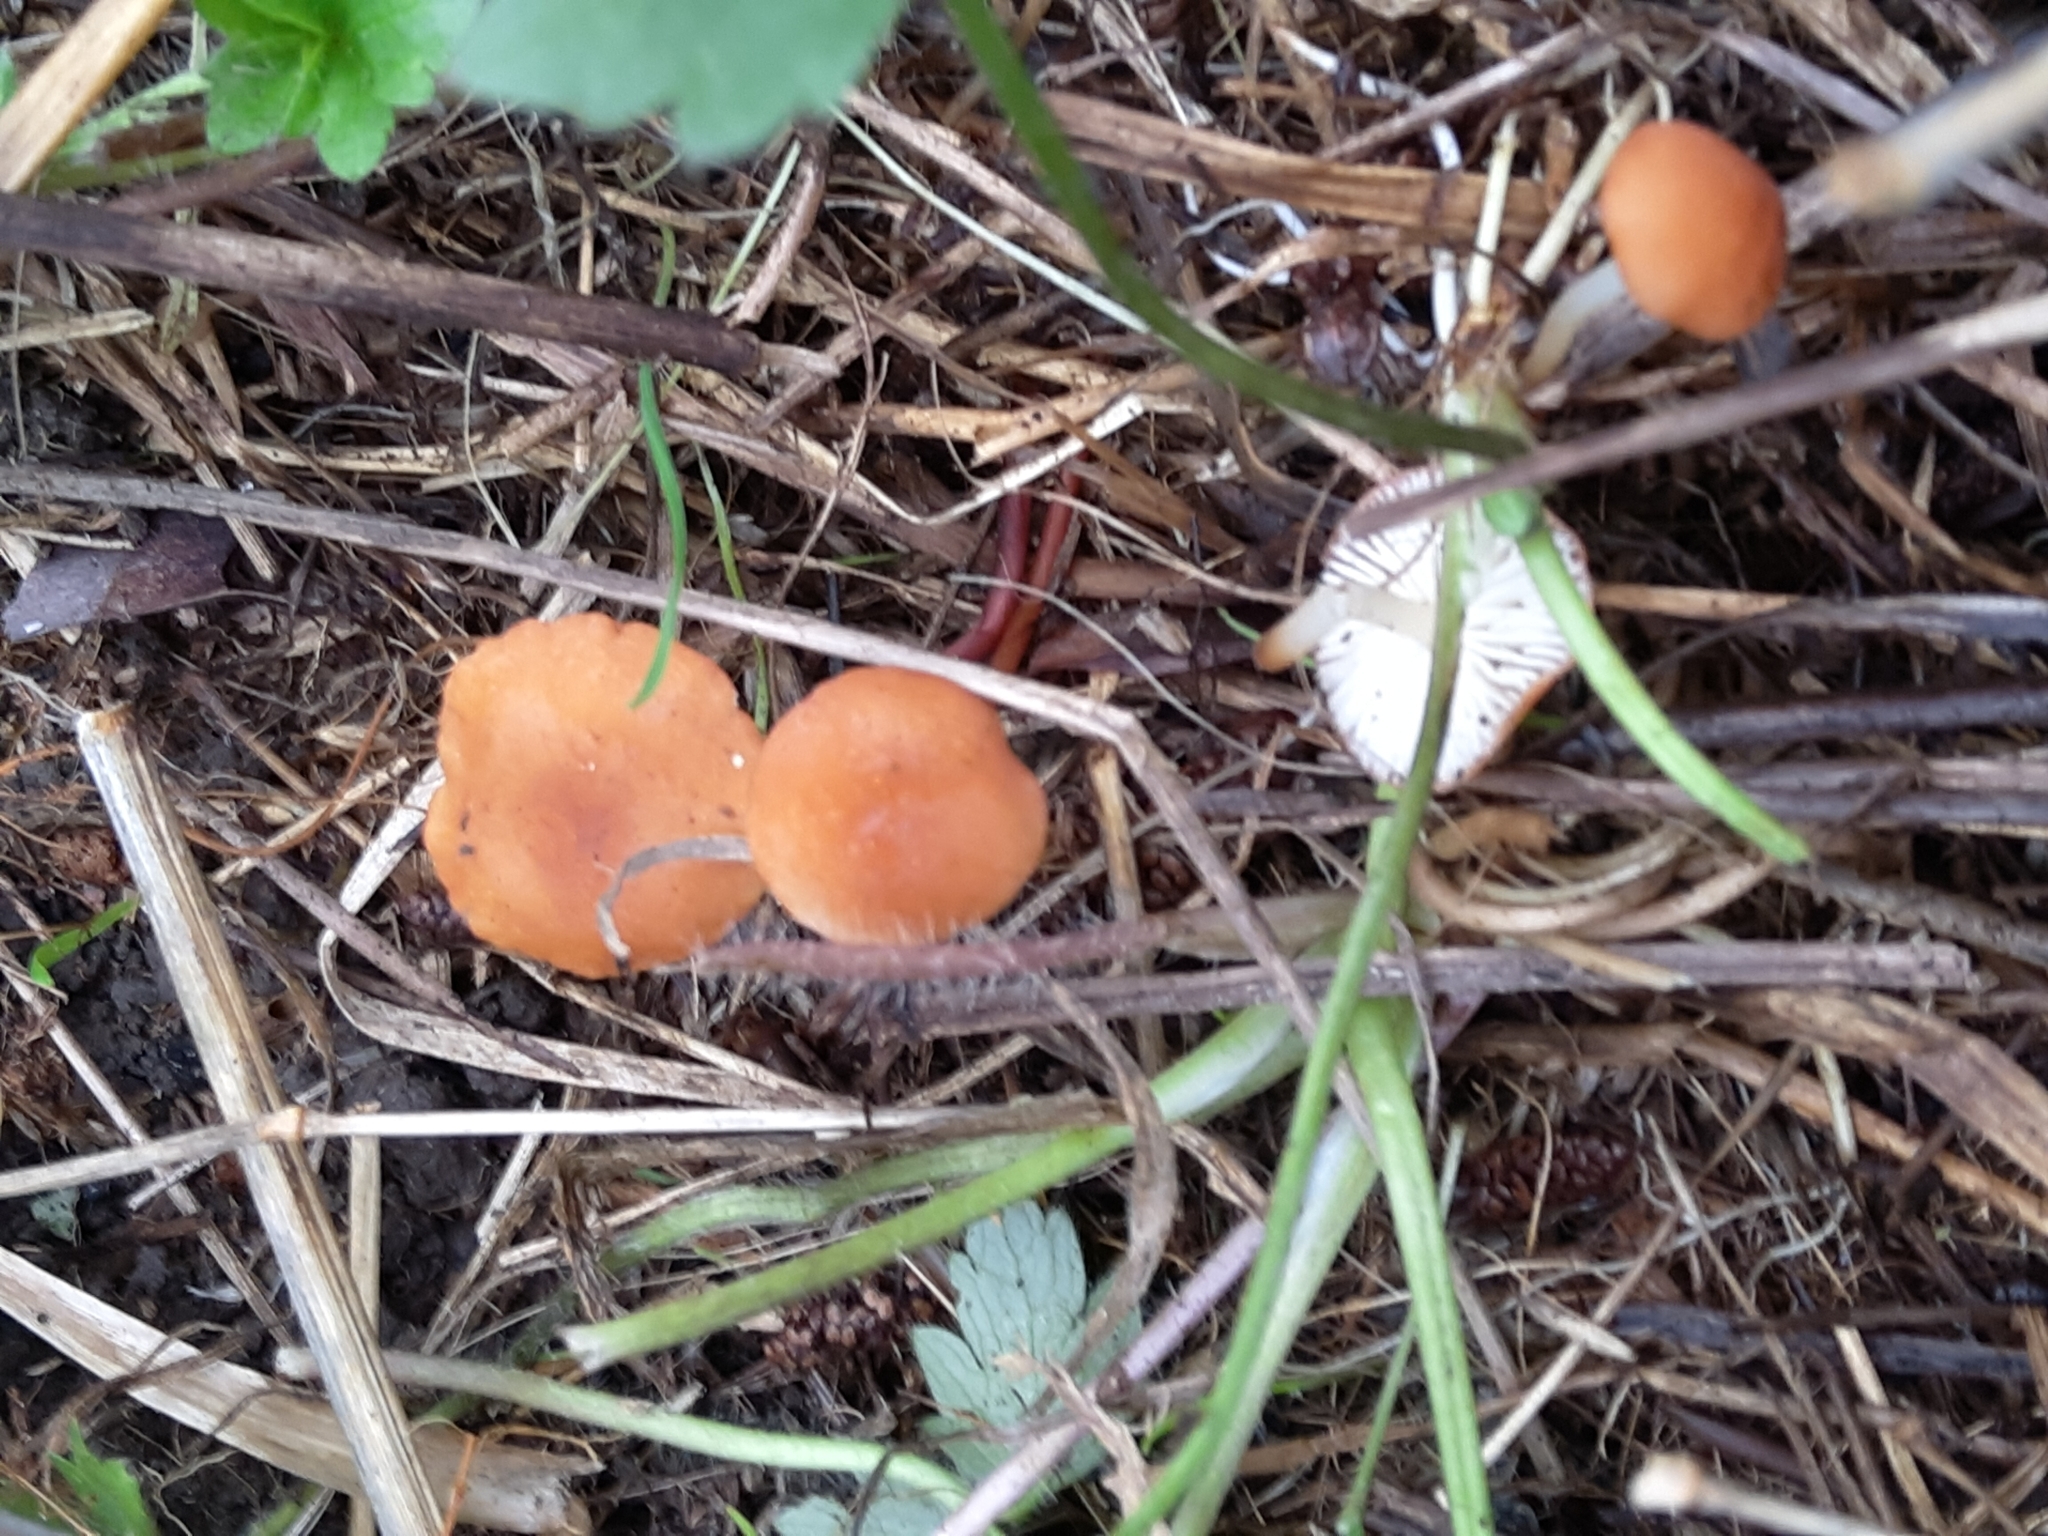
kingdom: Fungi
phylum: Basidiomycota
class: Agaricomycetes
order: Agaricales
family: Marasmiaceae
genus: Marasmius
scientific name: Marasmius elegans
